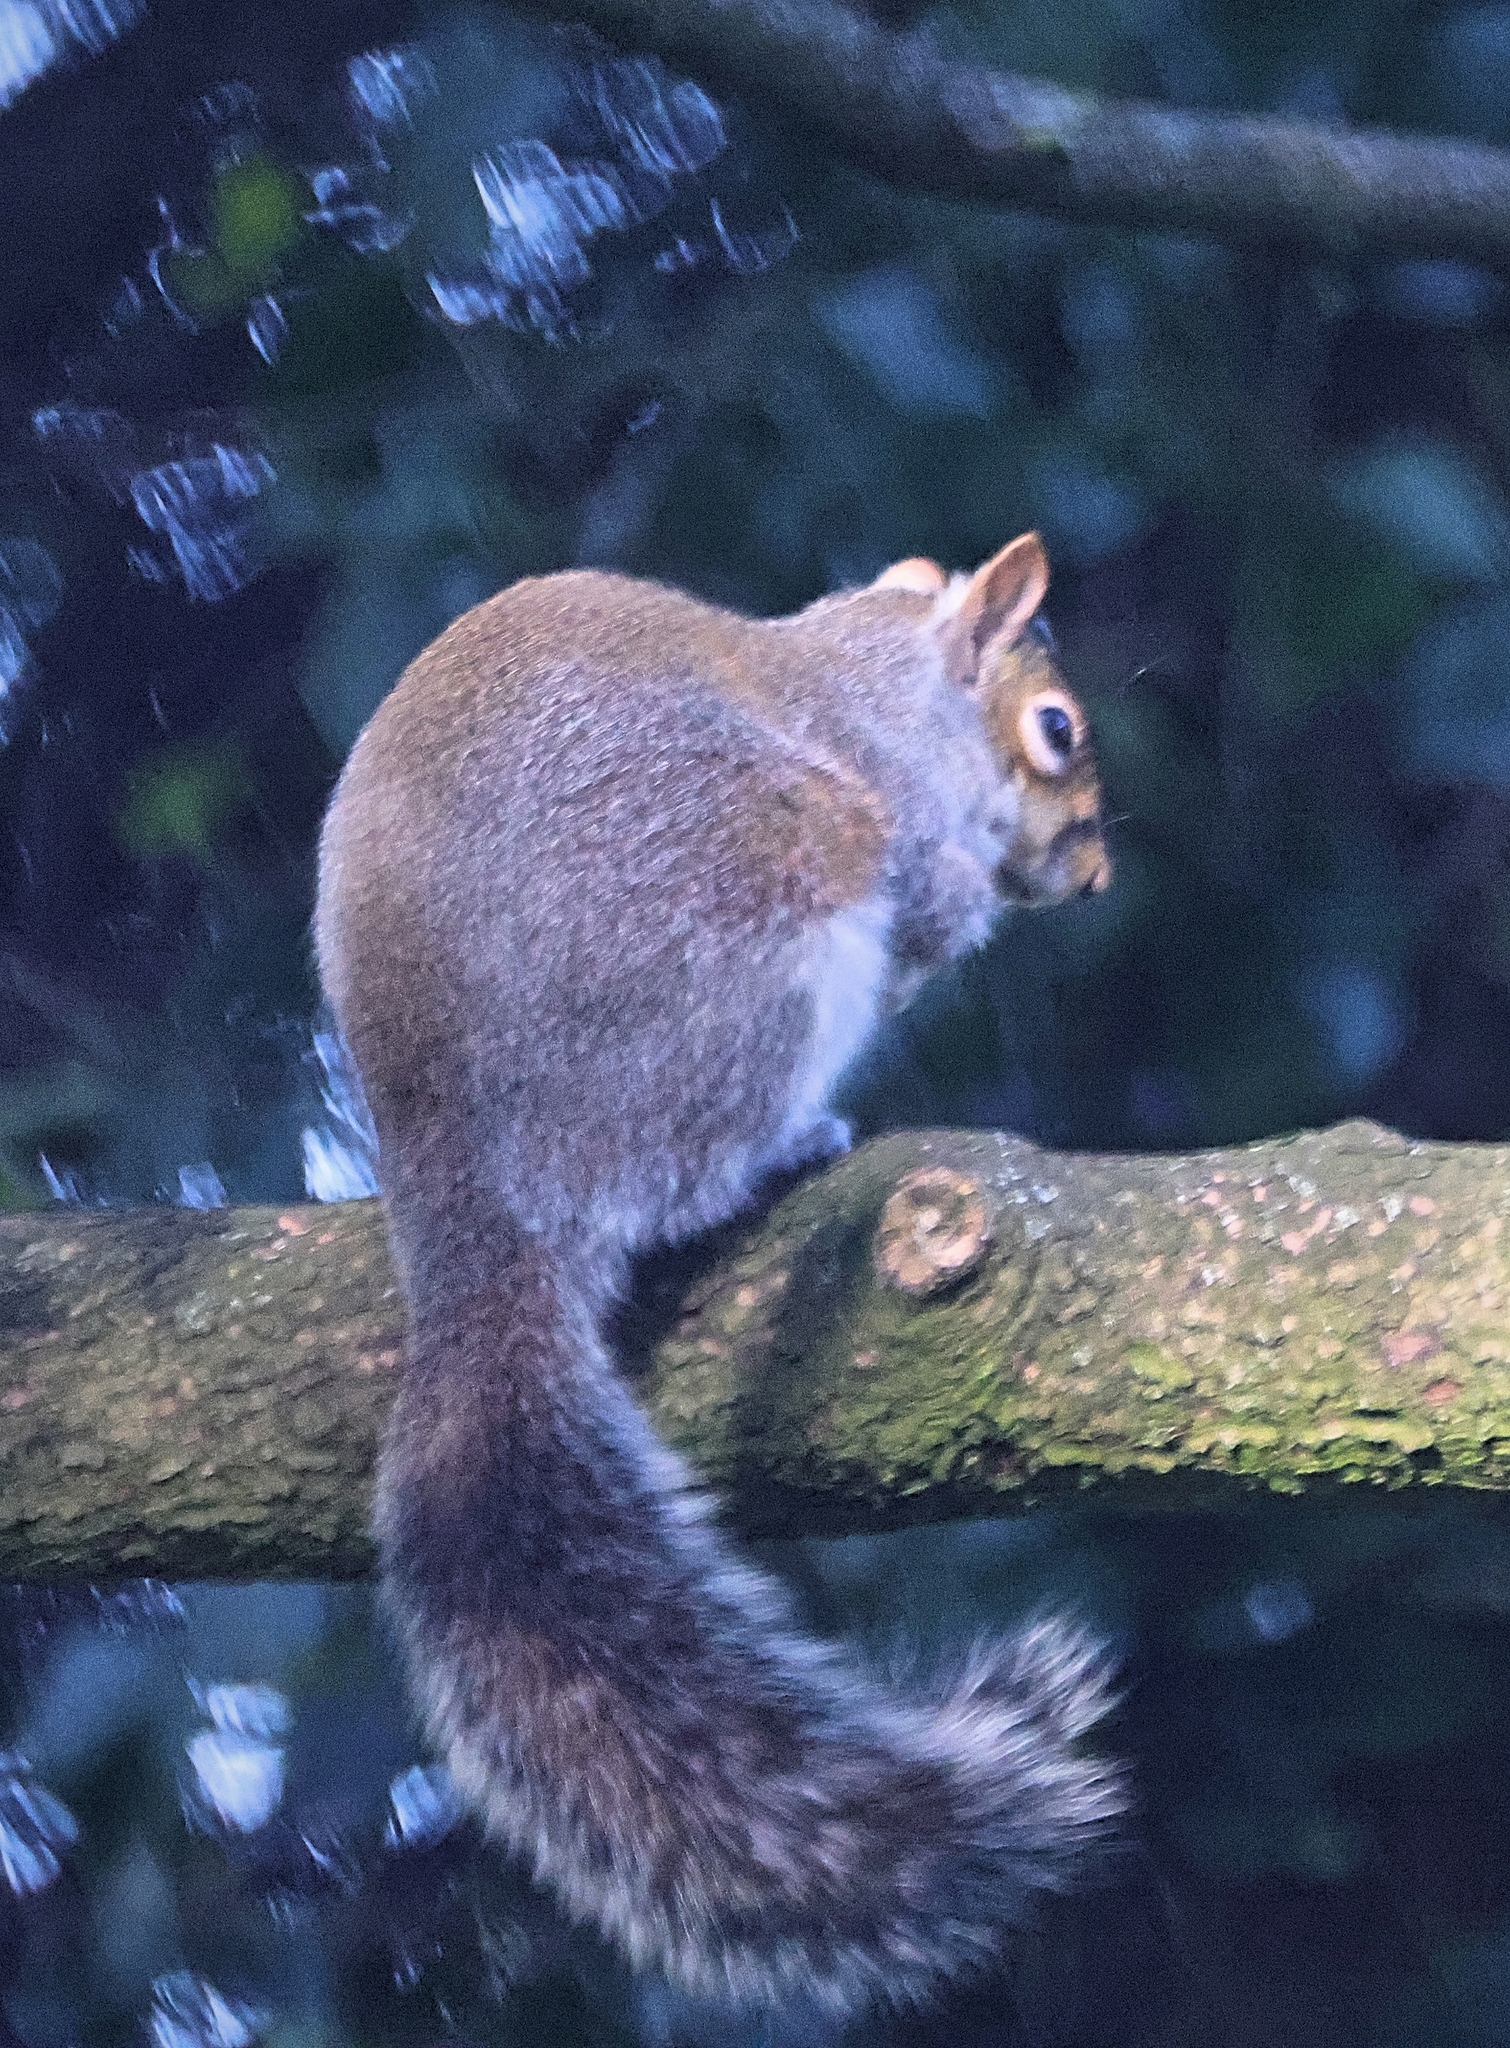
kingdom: Animalia
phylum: Chordata
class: Mammalia
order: Rodentia
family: Sciuridae
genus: Sciurus
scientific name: Sciurus carolinensis
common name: Eastern gray squirrel
